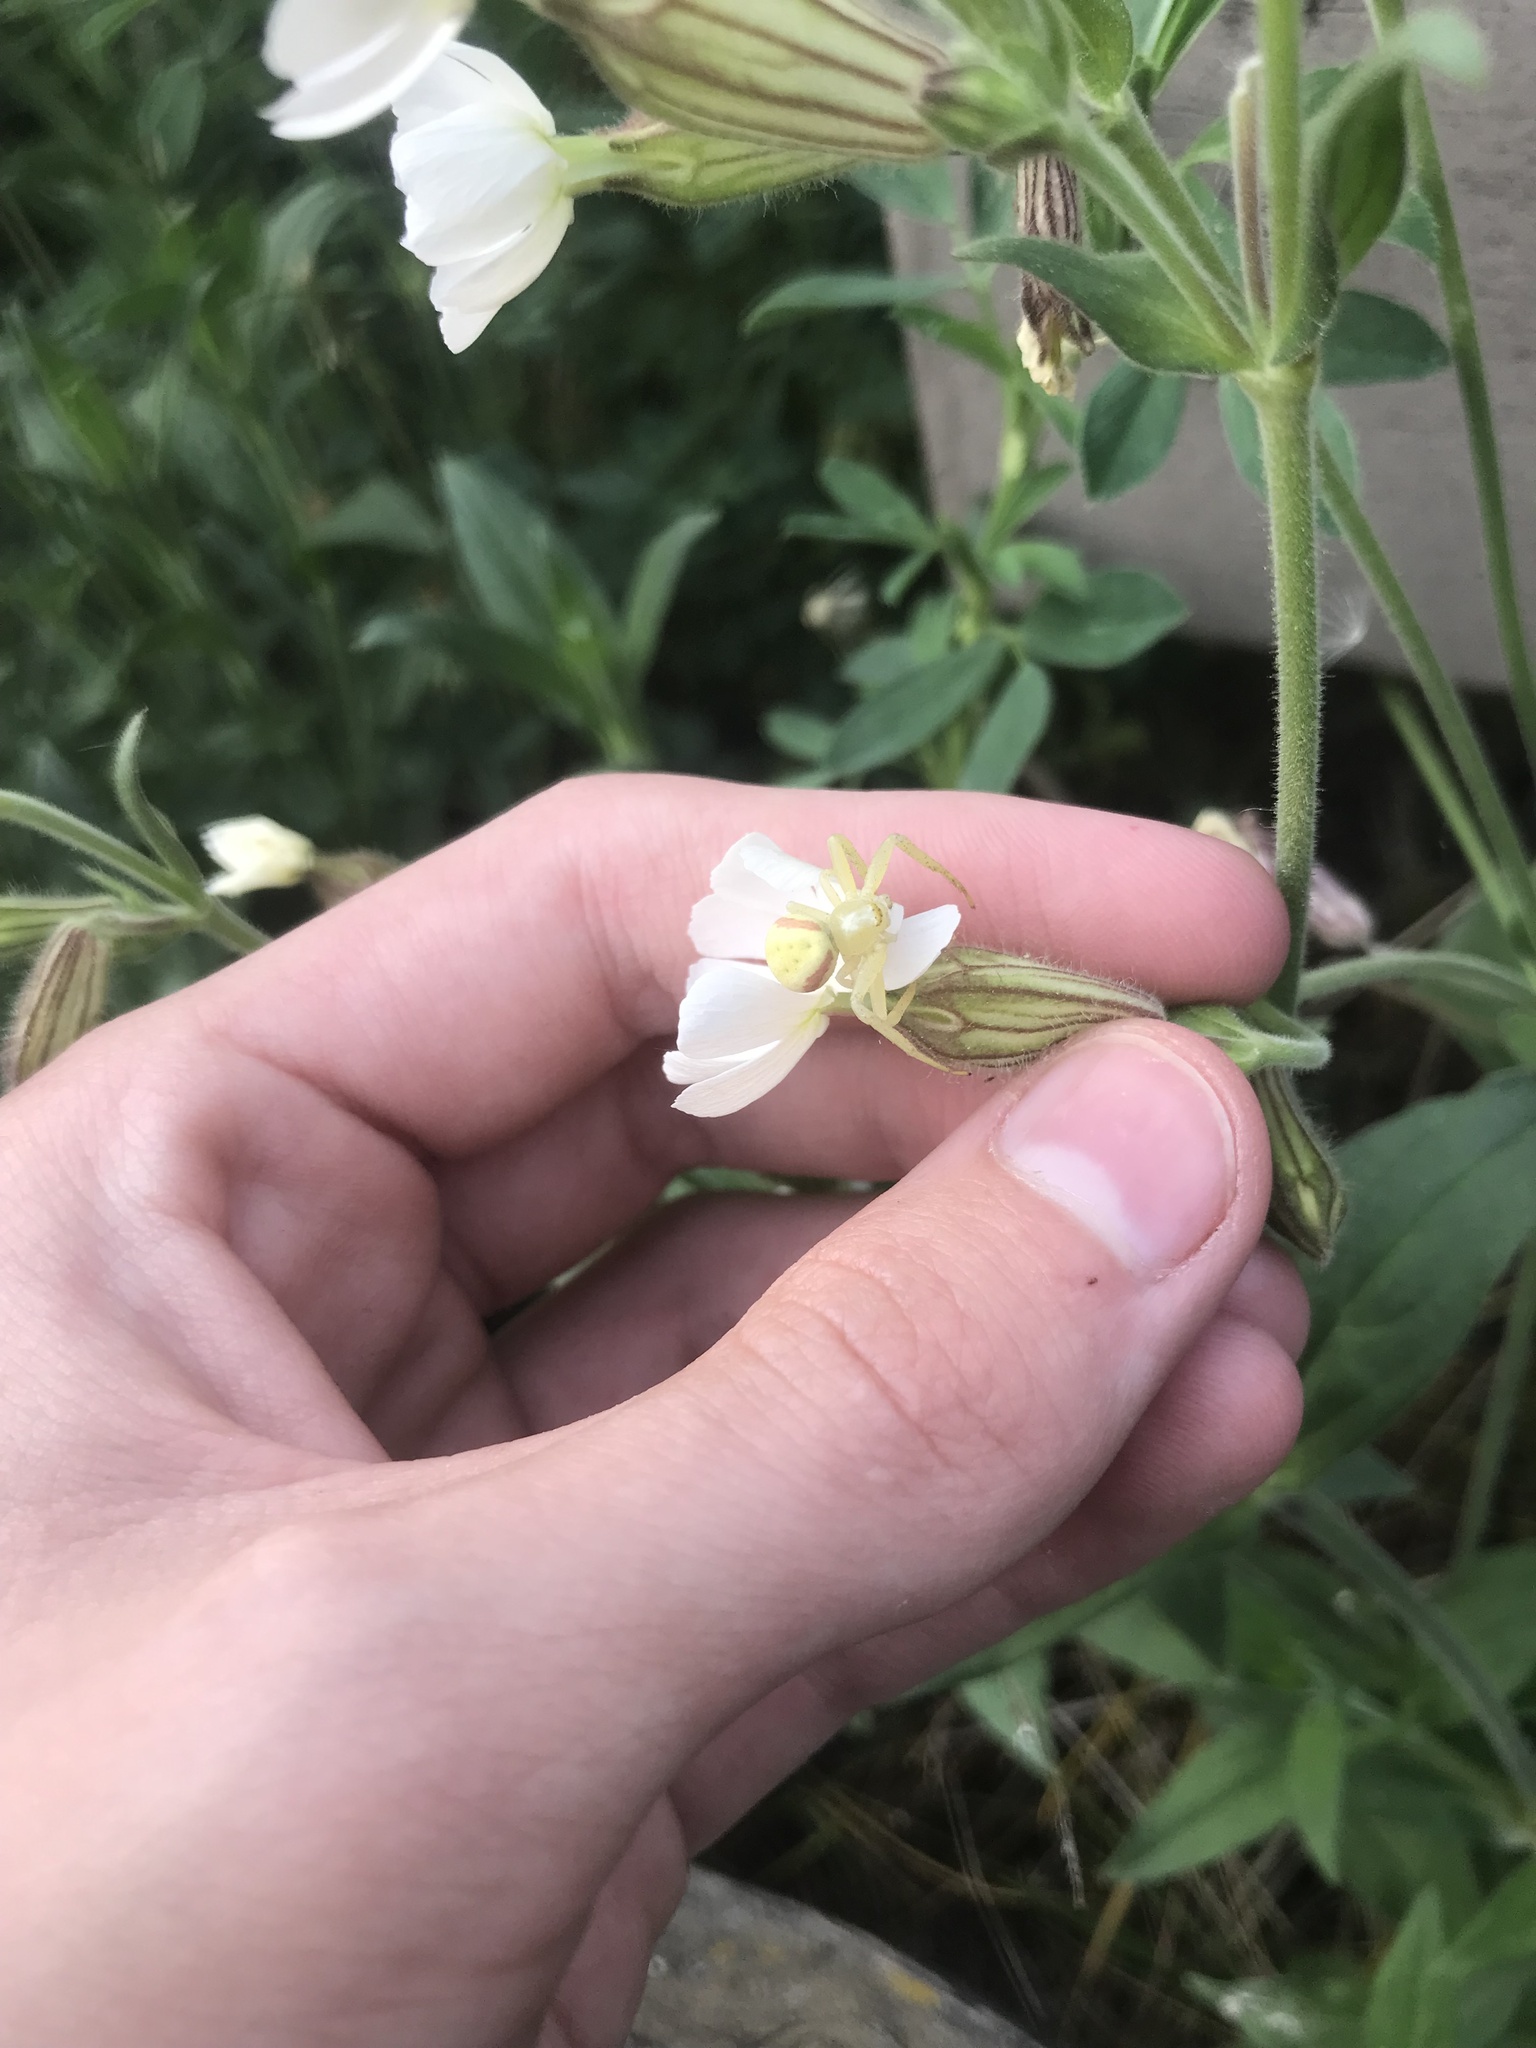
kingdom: Animalia
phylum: Arthropoda
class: Arachnida
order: Araneae
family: Thomisidae
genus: Misumena
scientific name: Misumena vatia
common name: Goldenrod crab spider
